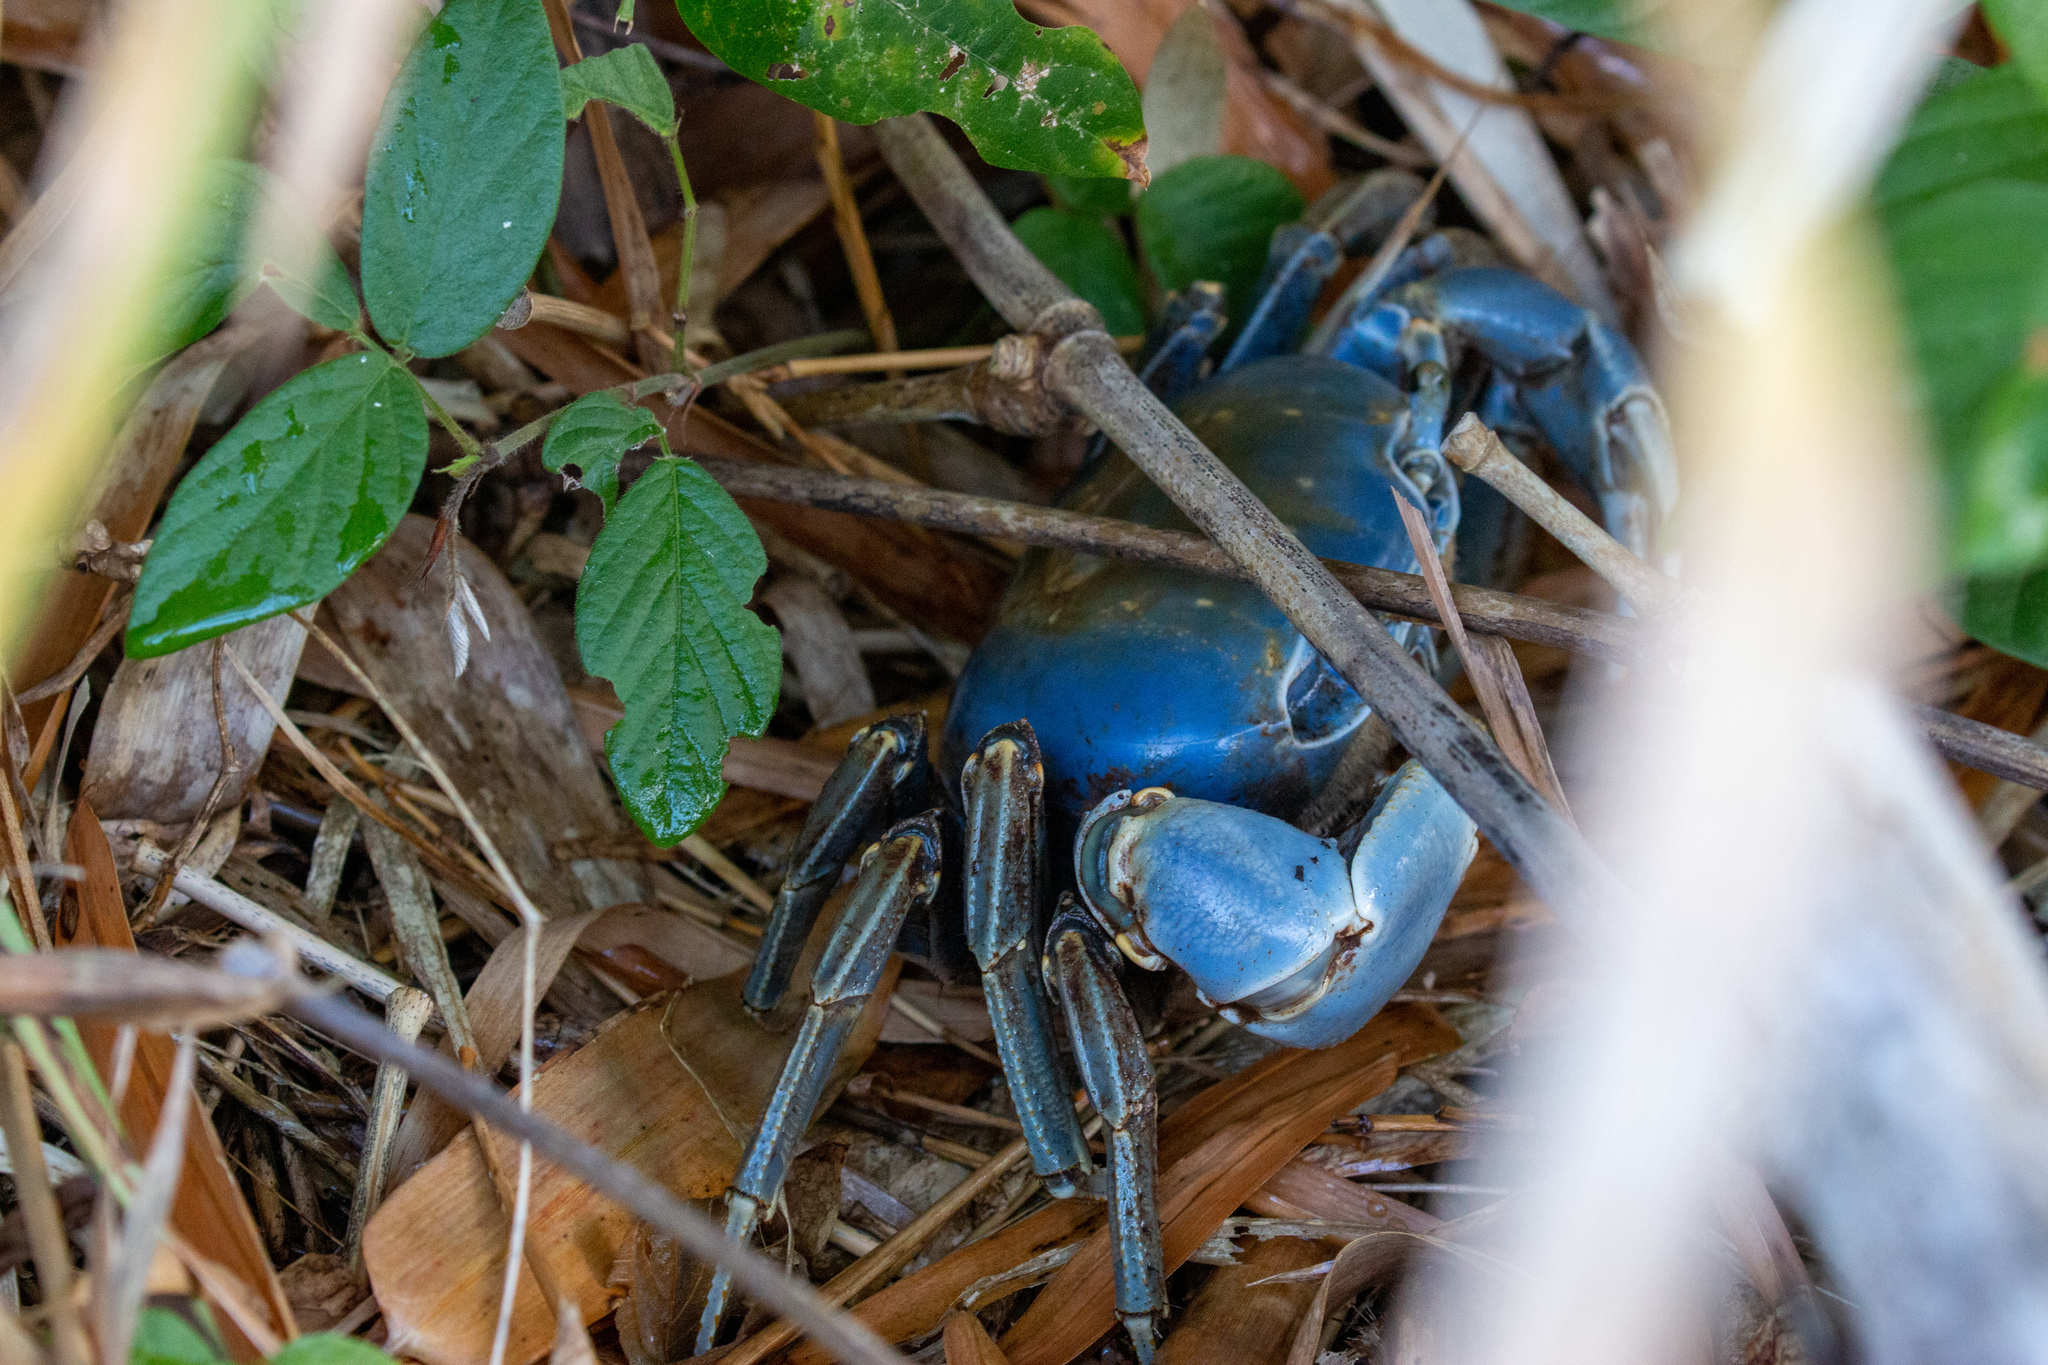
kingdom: Animalia
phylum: Arthropoda
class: Malacostraca
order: Decapoda
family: Gecarcinidae
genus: Cardisoma
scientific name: Cardisoma guanhumi
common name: Great land crab
